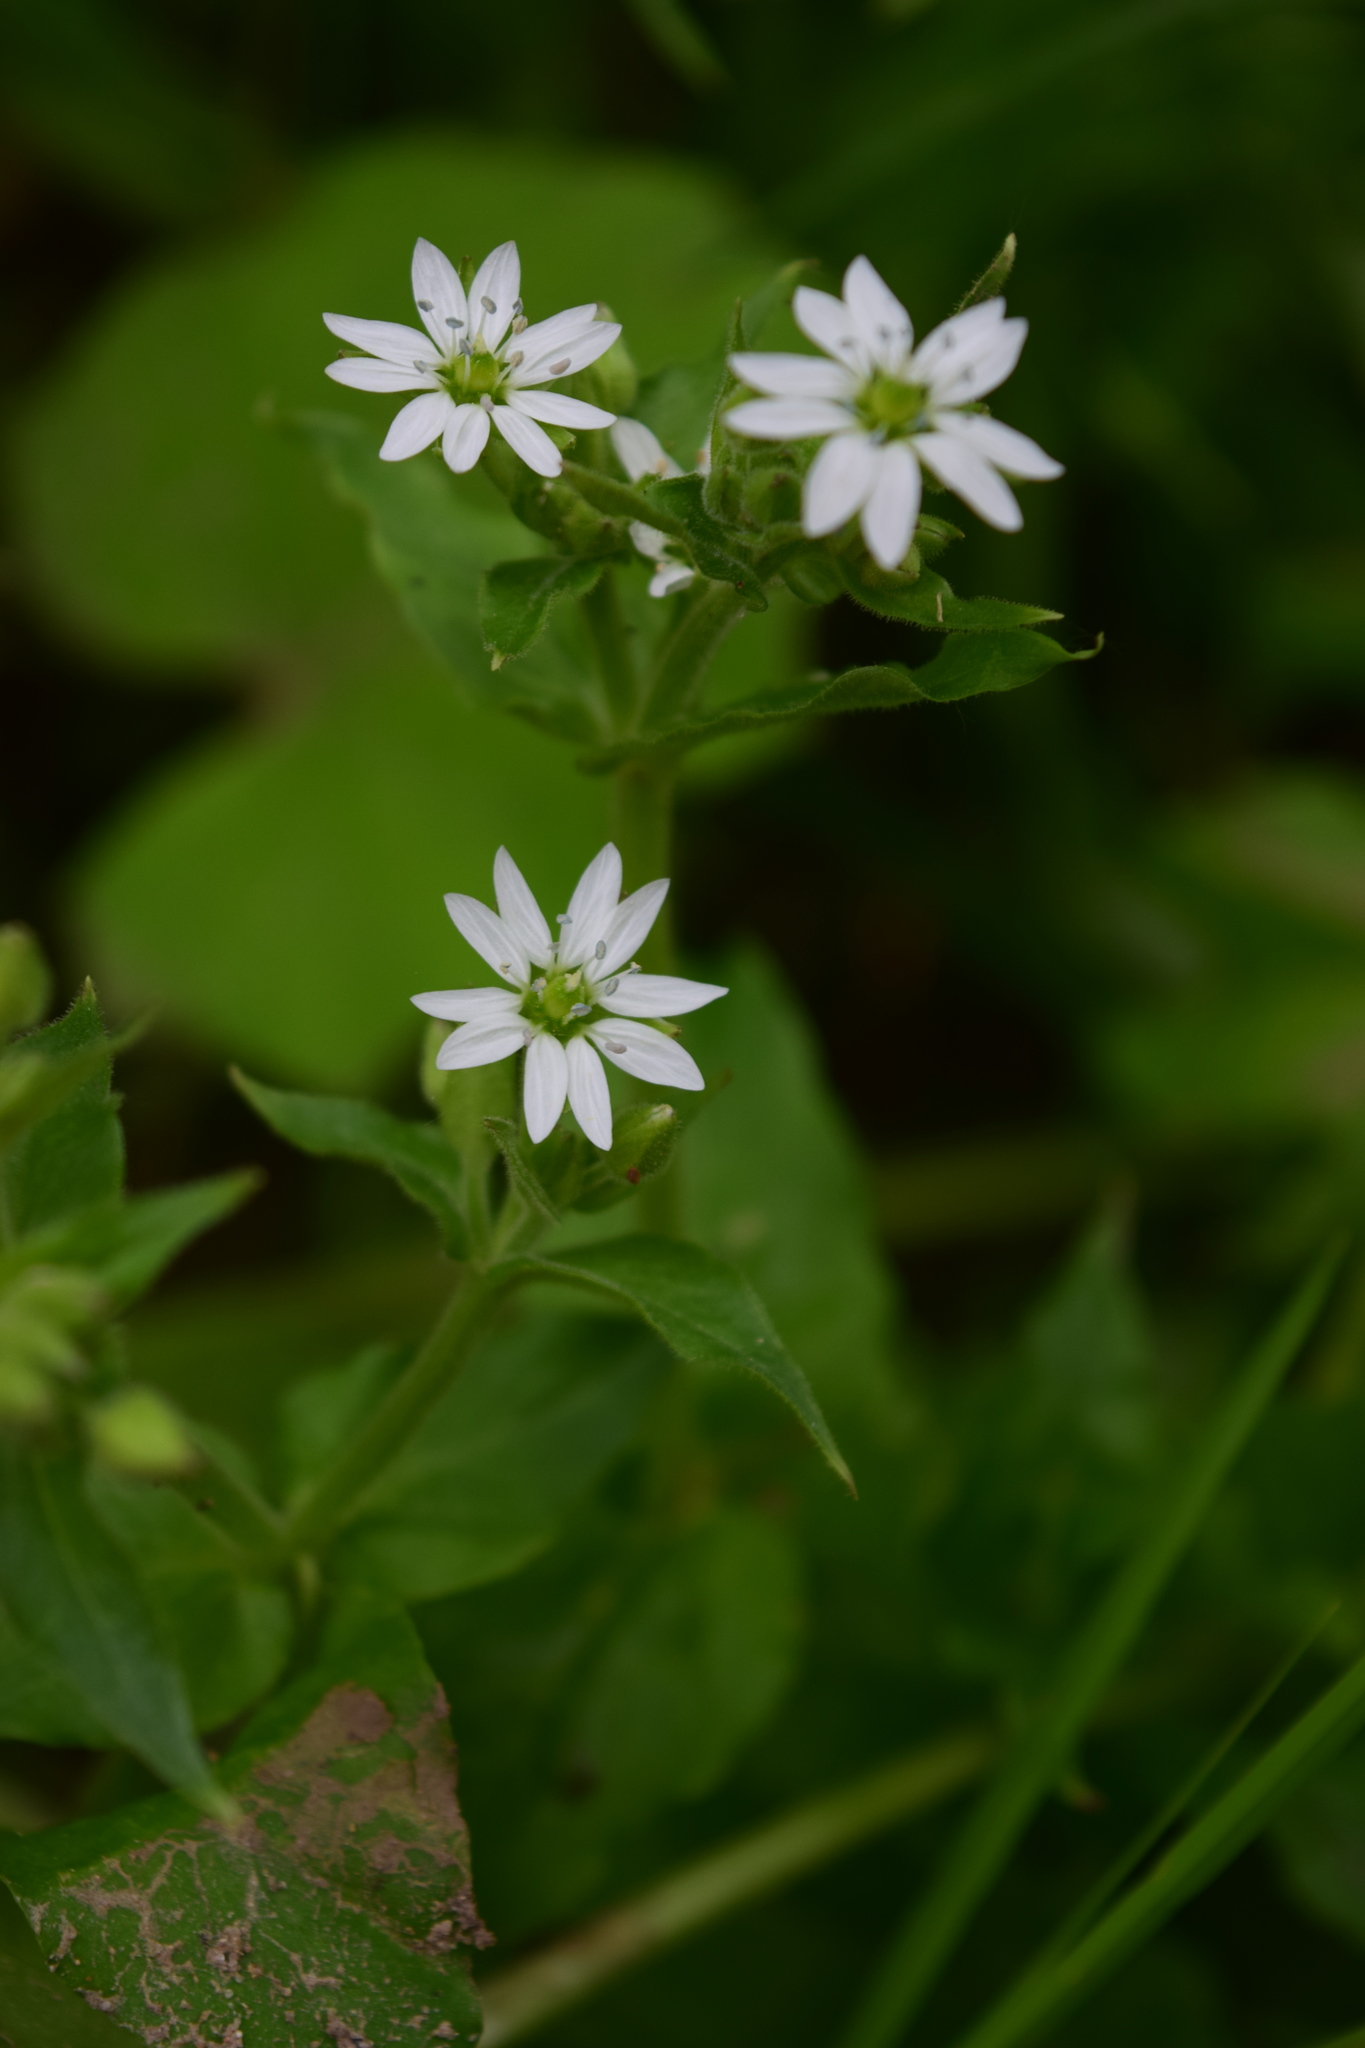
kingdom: Plantae
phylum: Tracheophyta
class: Magnoliopsida
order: Caryophyllales
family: Caryophyllaceae
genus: Stellaria
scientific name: Stellaria aquatica
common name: Water chickweed
